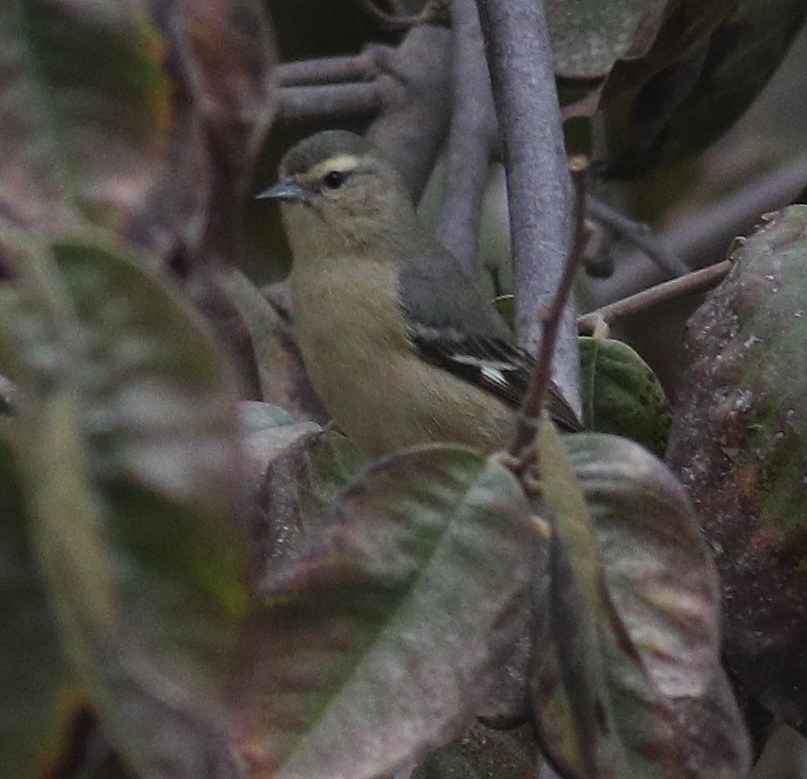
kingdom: Animalia
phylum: Chordata
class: Aves
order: Passeriformes
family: Thraupidae
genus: Conirostrum
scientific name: Conirostrum cinereum
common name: Cinereous conebill
